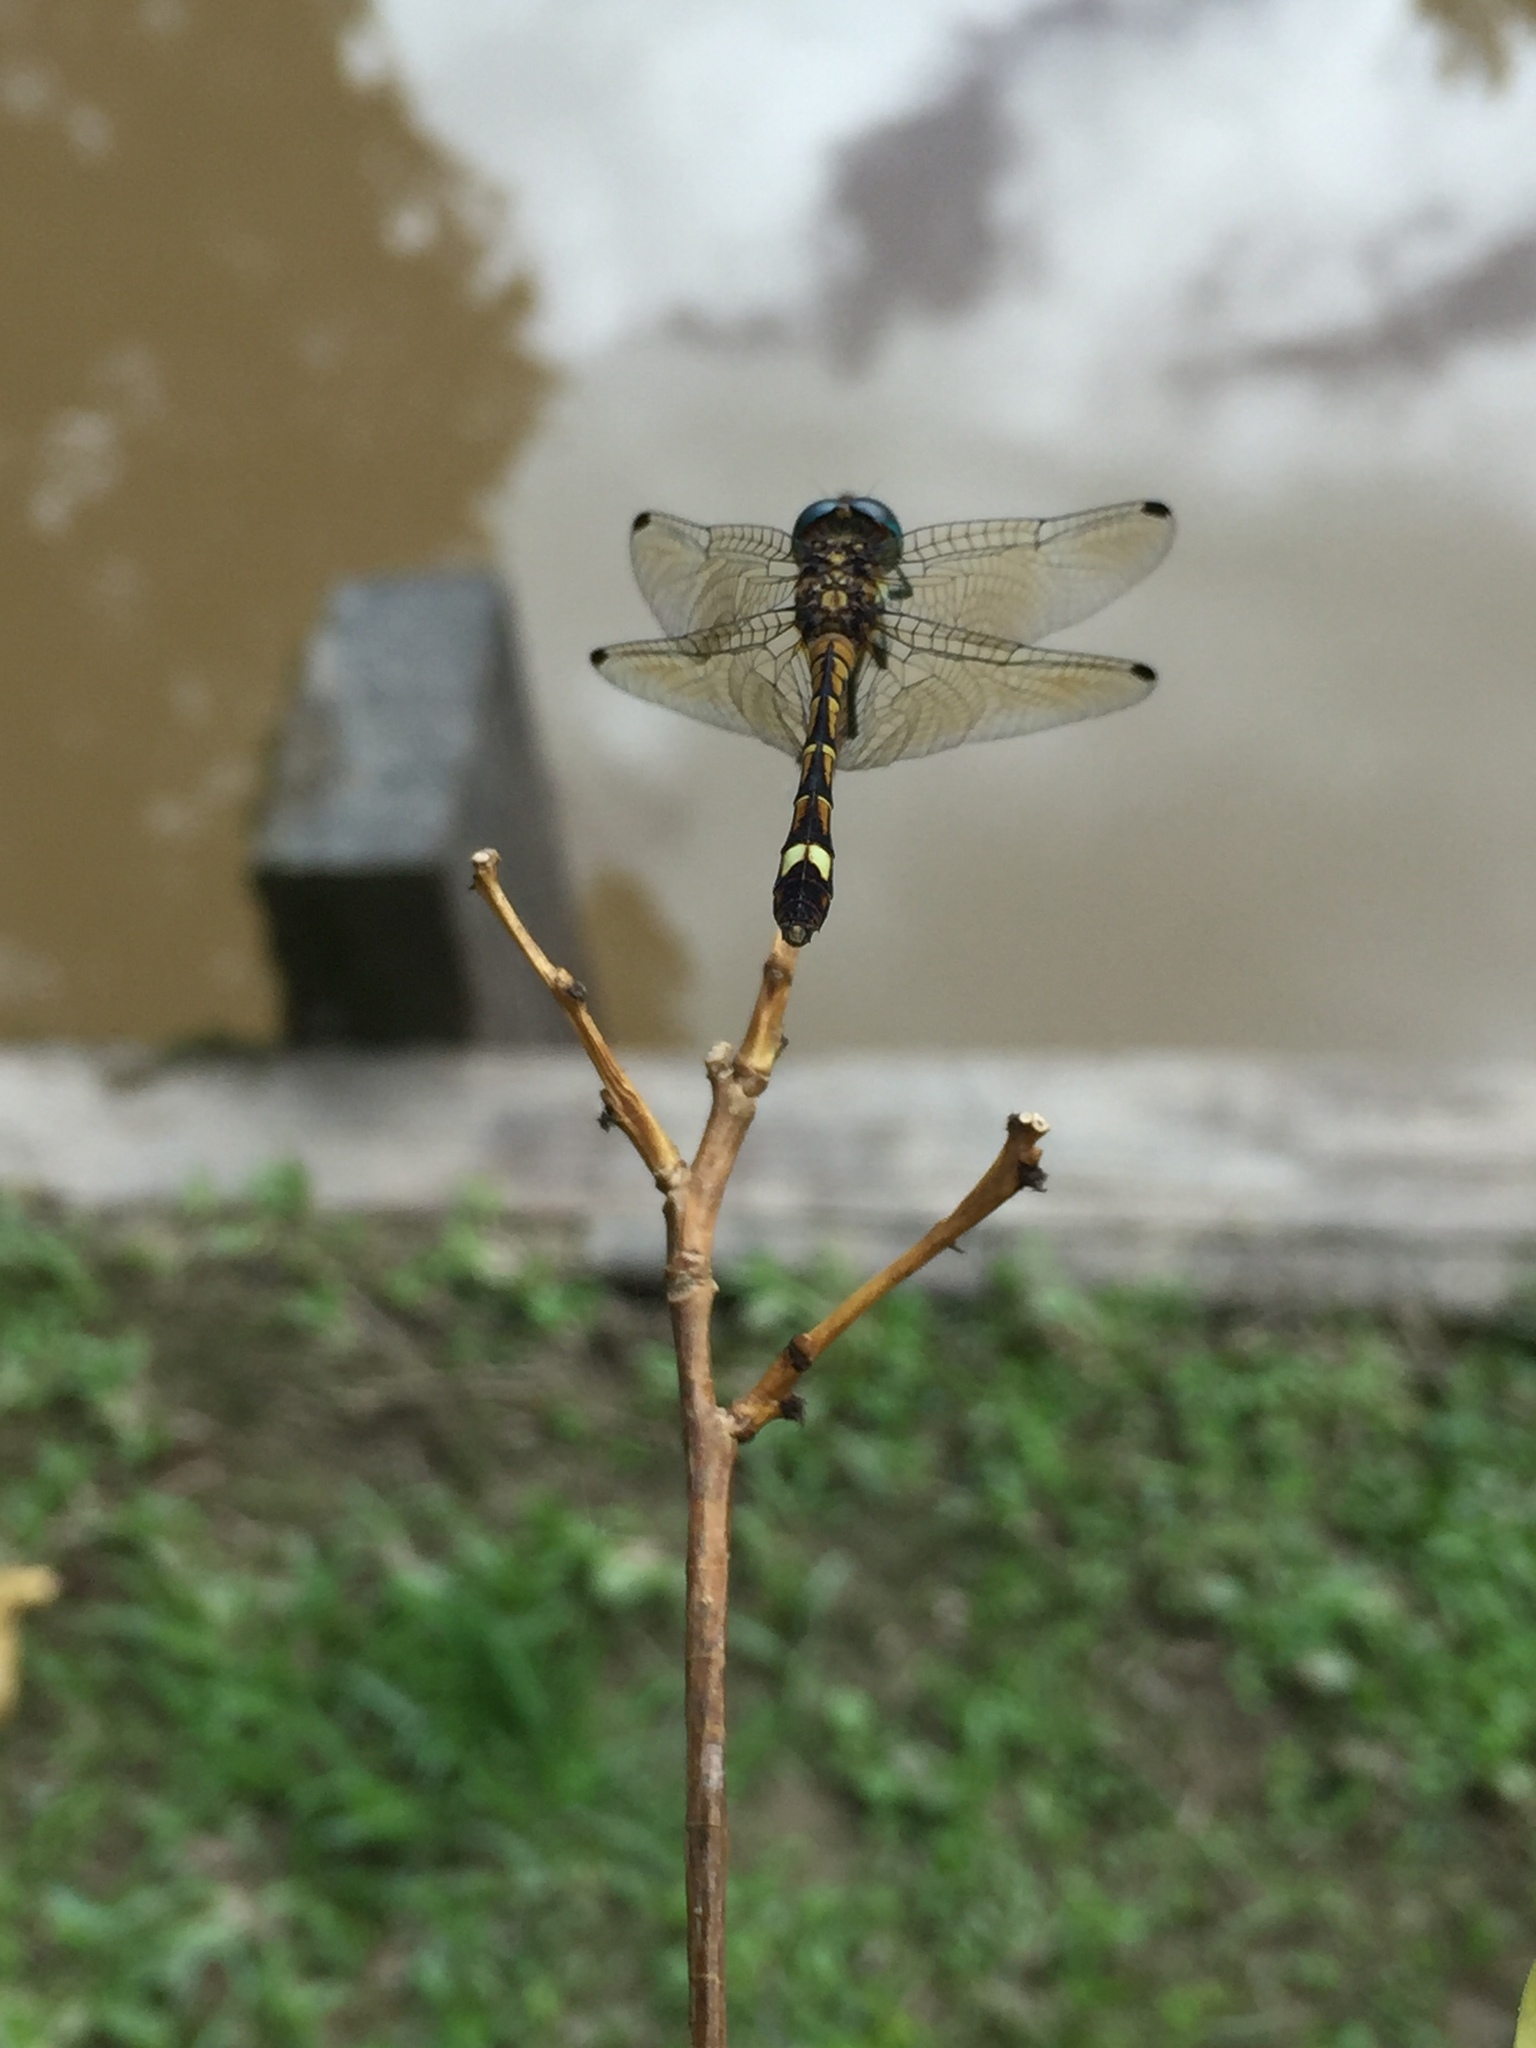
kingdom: Animalia
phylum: Arthropoda
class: Insecta
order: Odonata
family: Libellulidae
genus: Micrathyria
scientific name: Micrathyria hypodidyma
